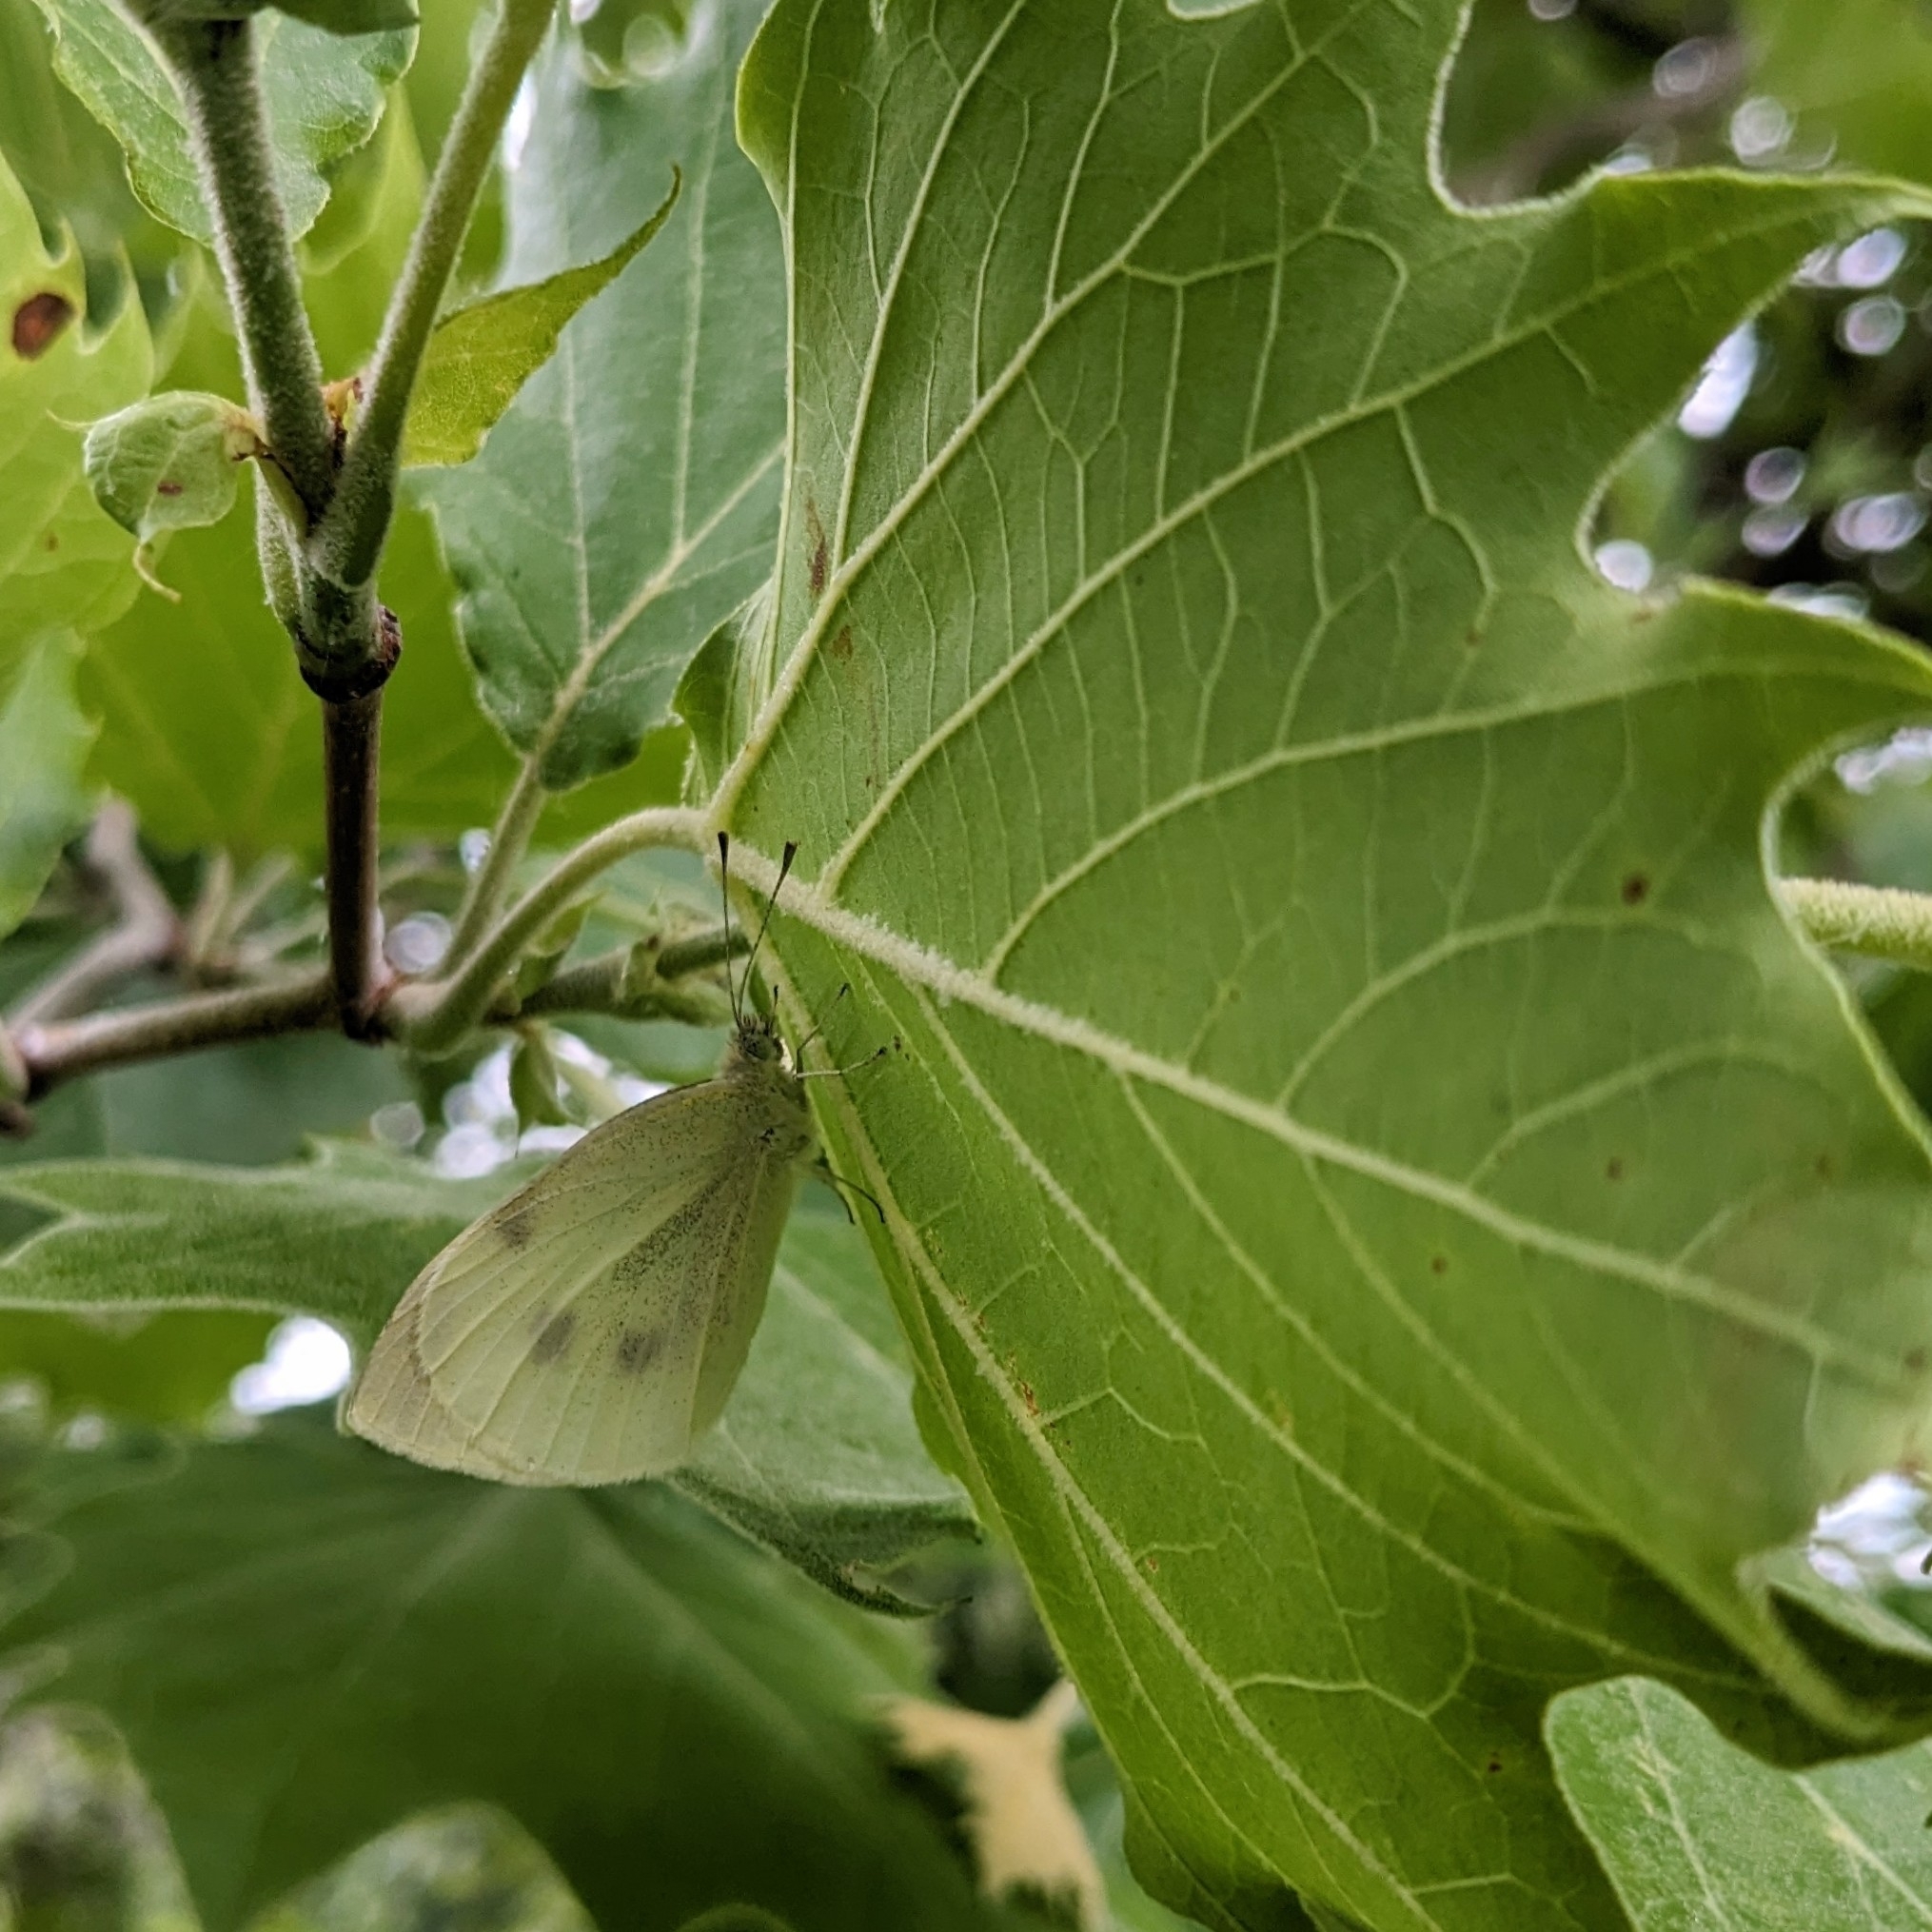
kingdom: Animalia
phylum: Arthropoda
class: Insecta
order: Lepidoptera
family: Pieridae
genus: Pieris
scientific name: Pieris rapae
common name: Small white
